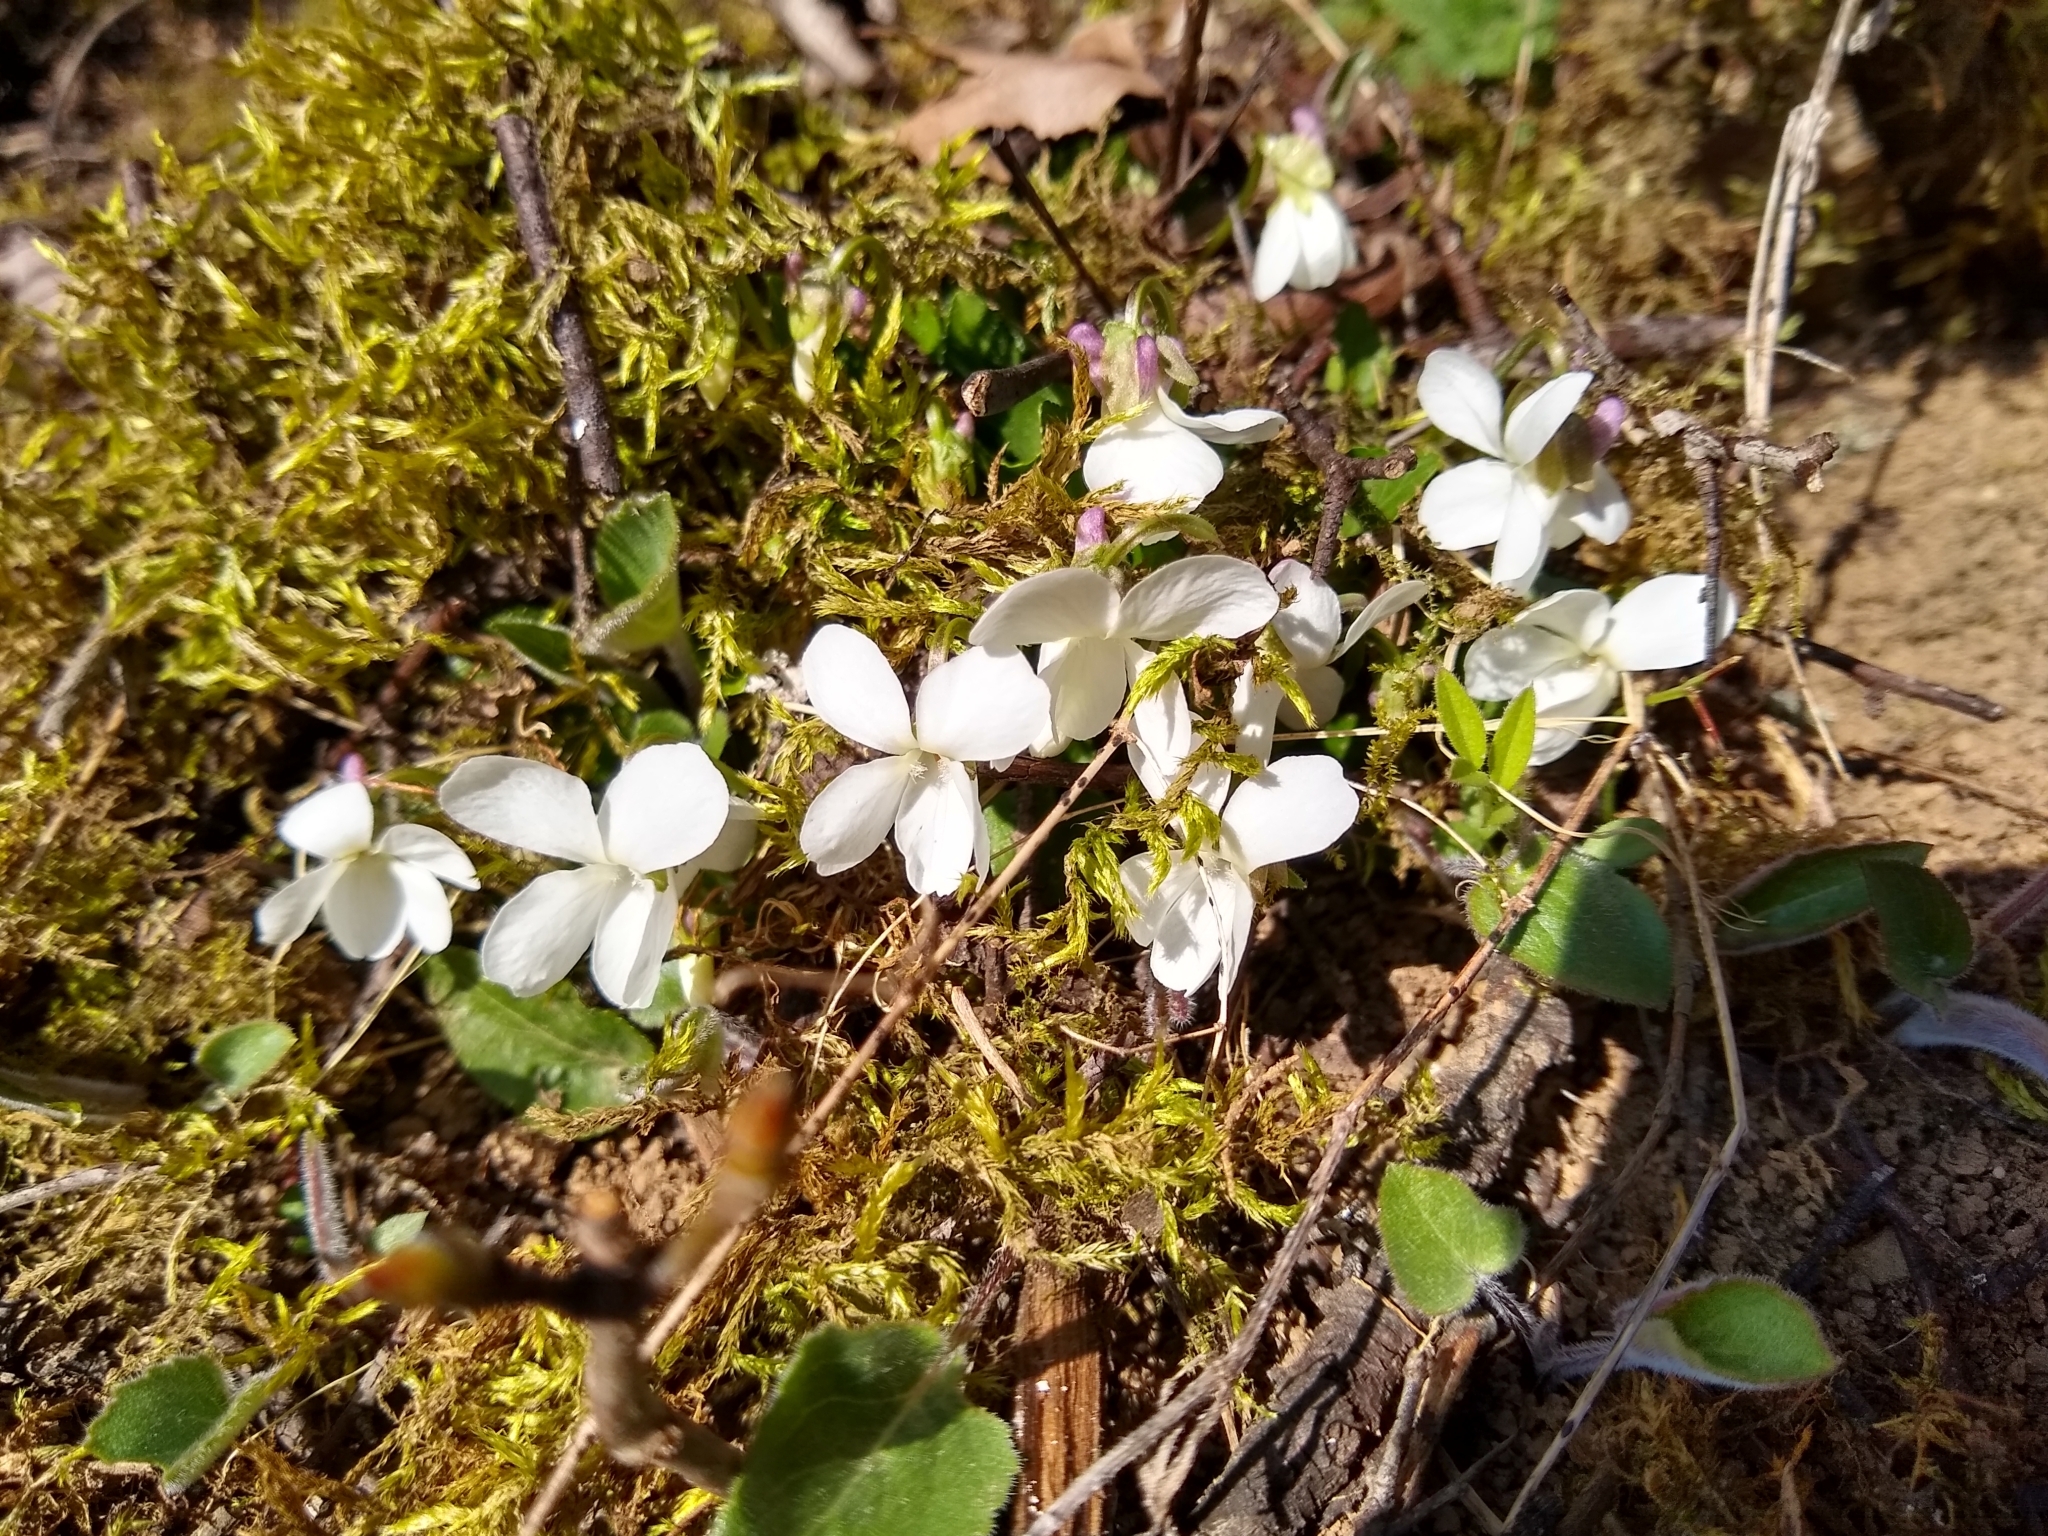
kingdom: Plantae
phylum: Tracheophyta
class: Magnoliopsida
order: Malpighiales
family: Violaceae
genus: Viola
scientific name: Viola alba
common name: White violet
